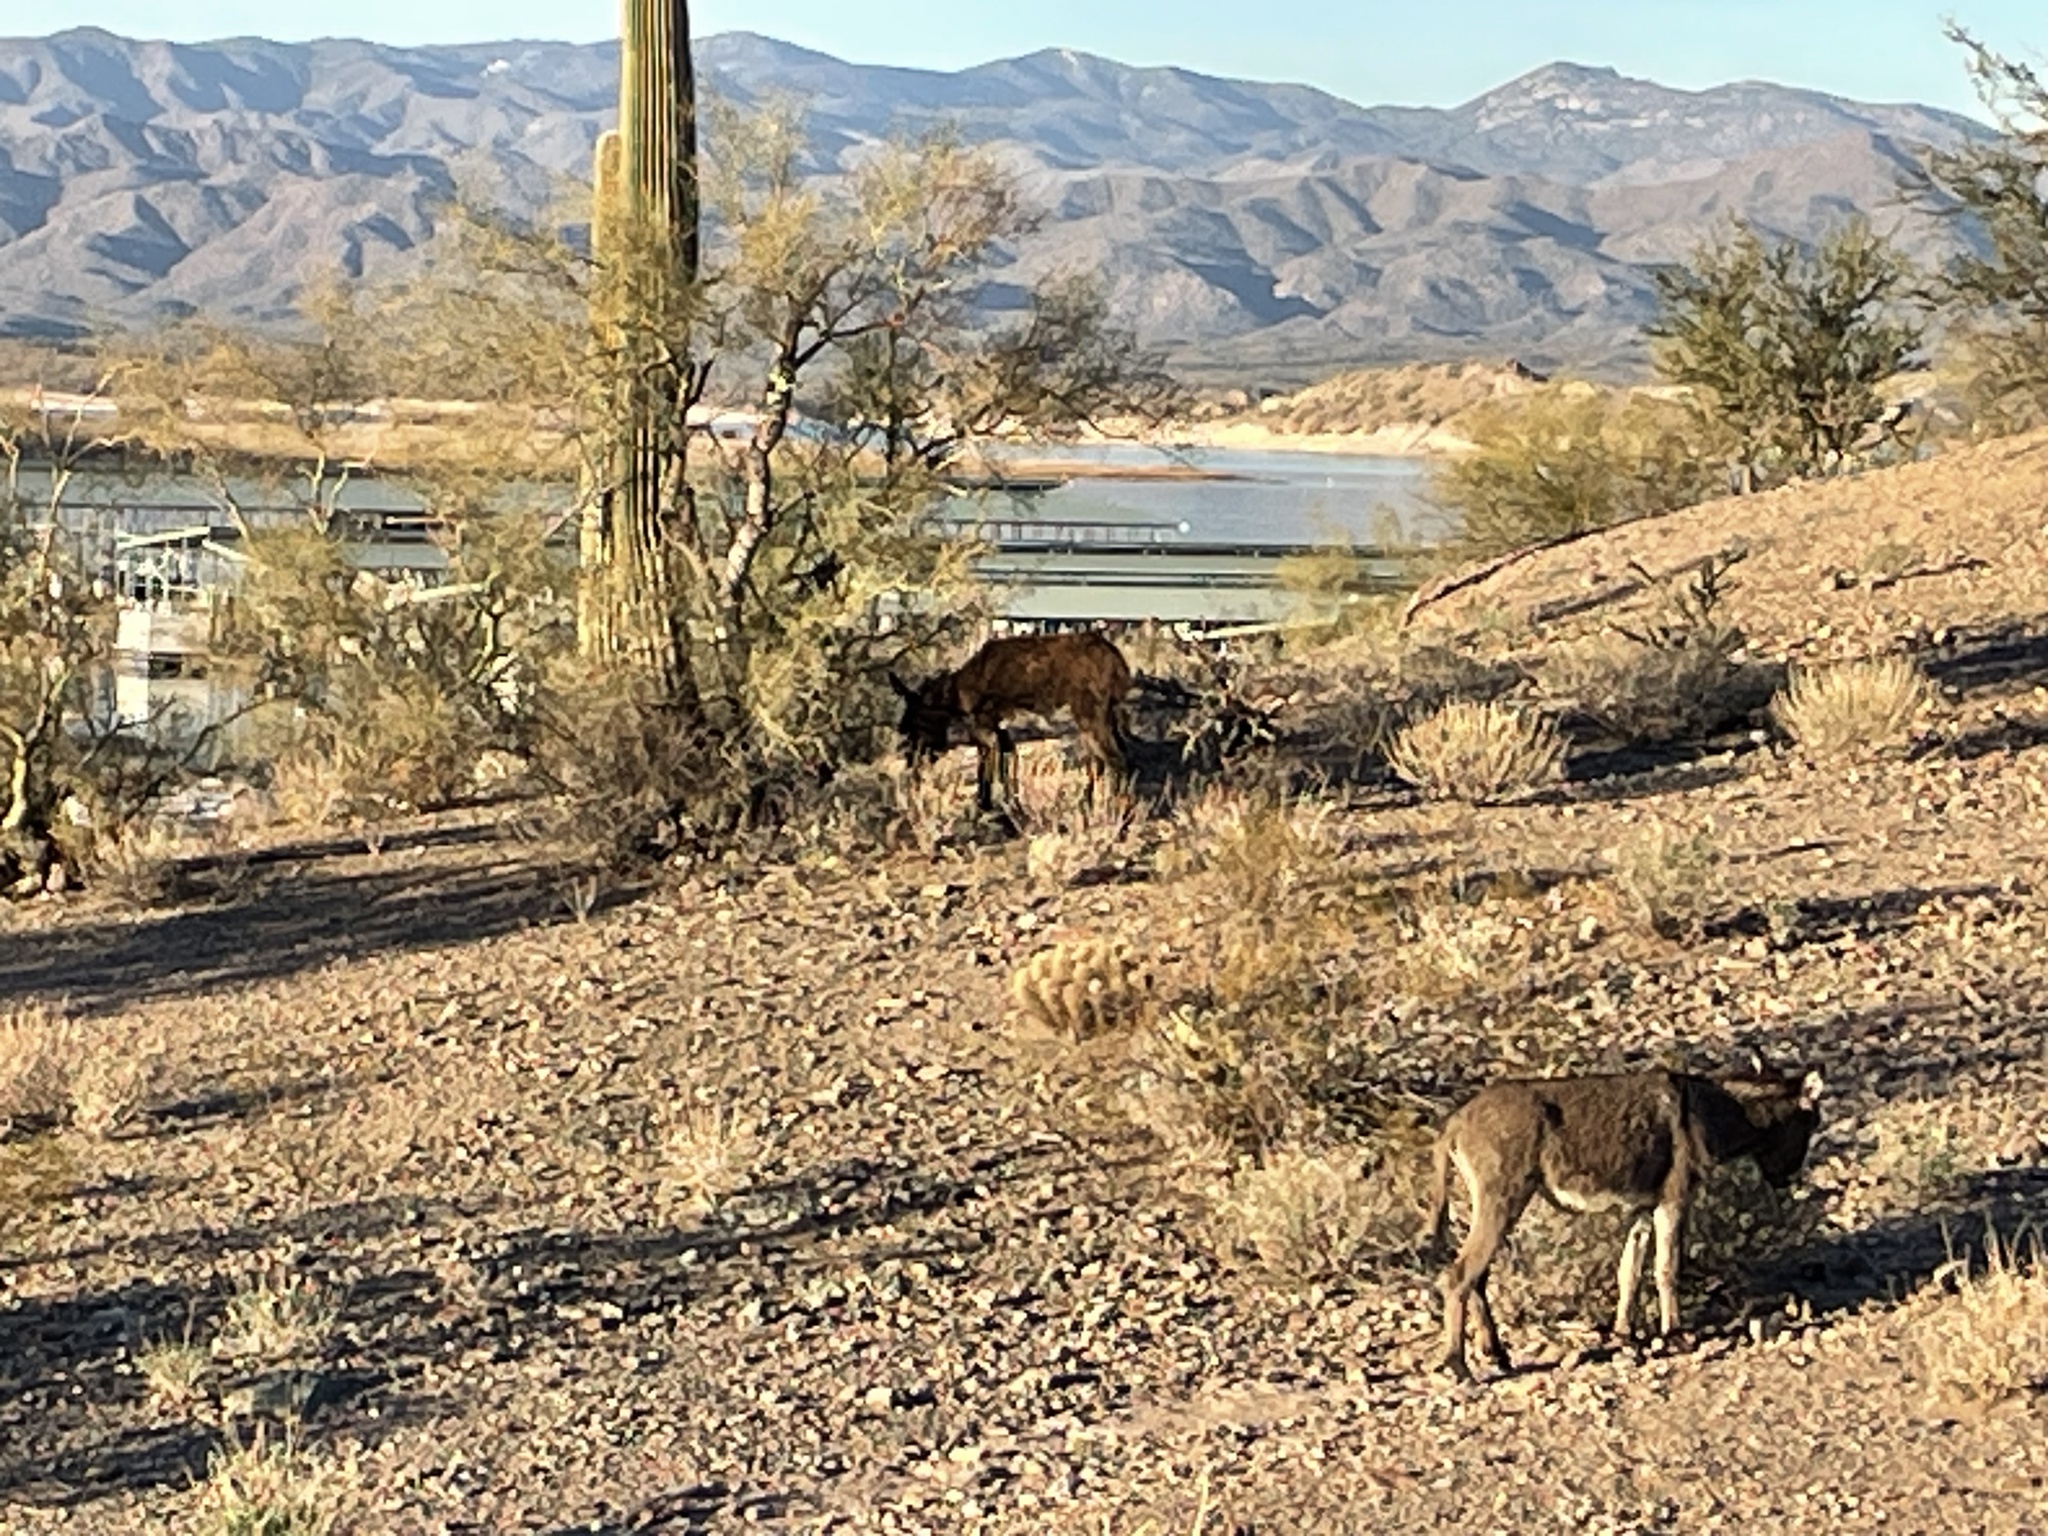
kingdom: Animalia
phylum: Chordata
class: Mammalia
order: Perissodactyla
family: Equidae
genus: Equus
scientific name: Equus asinus
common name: Ass
